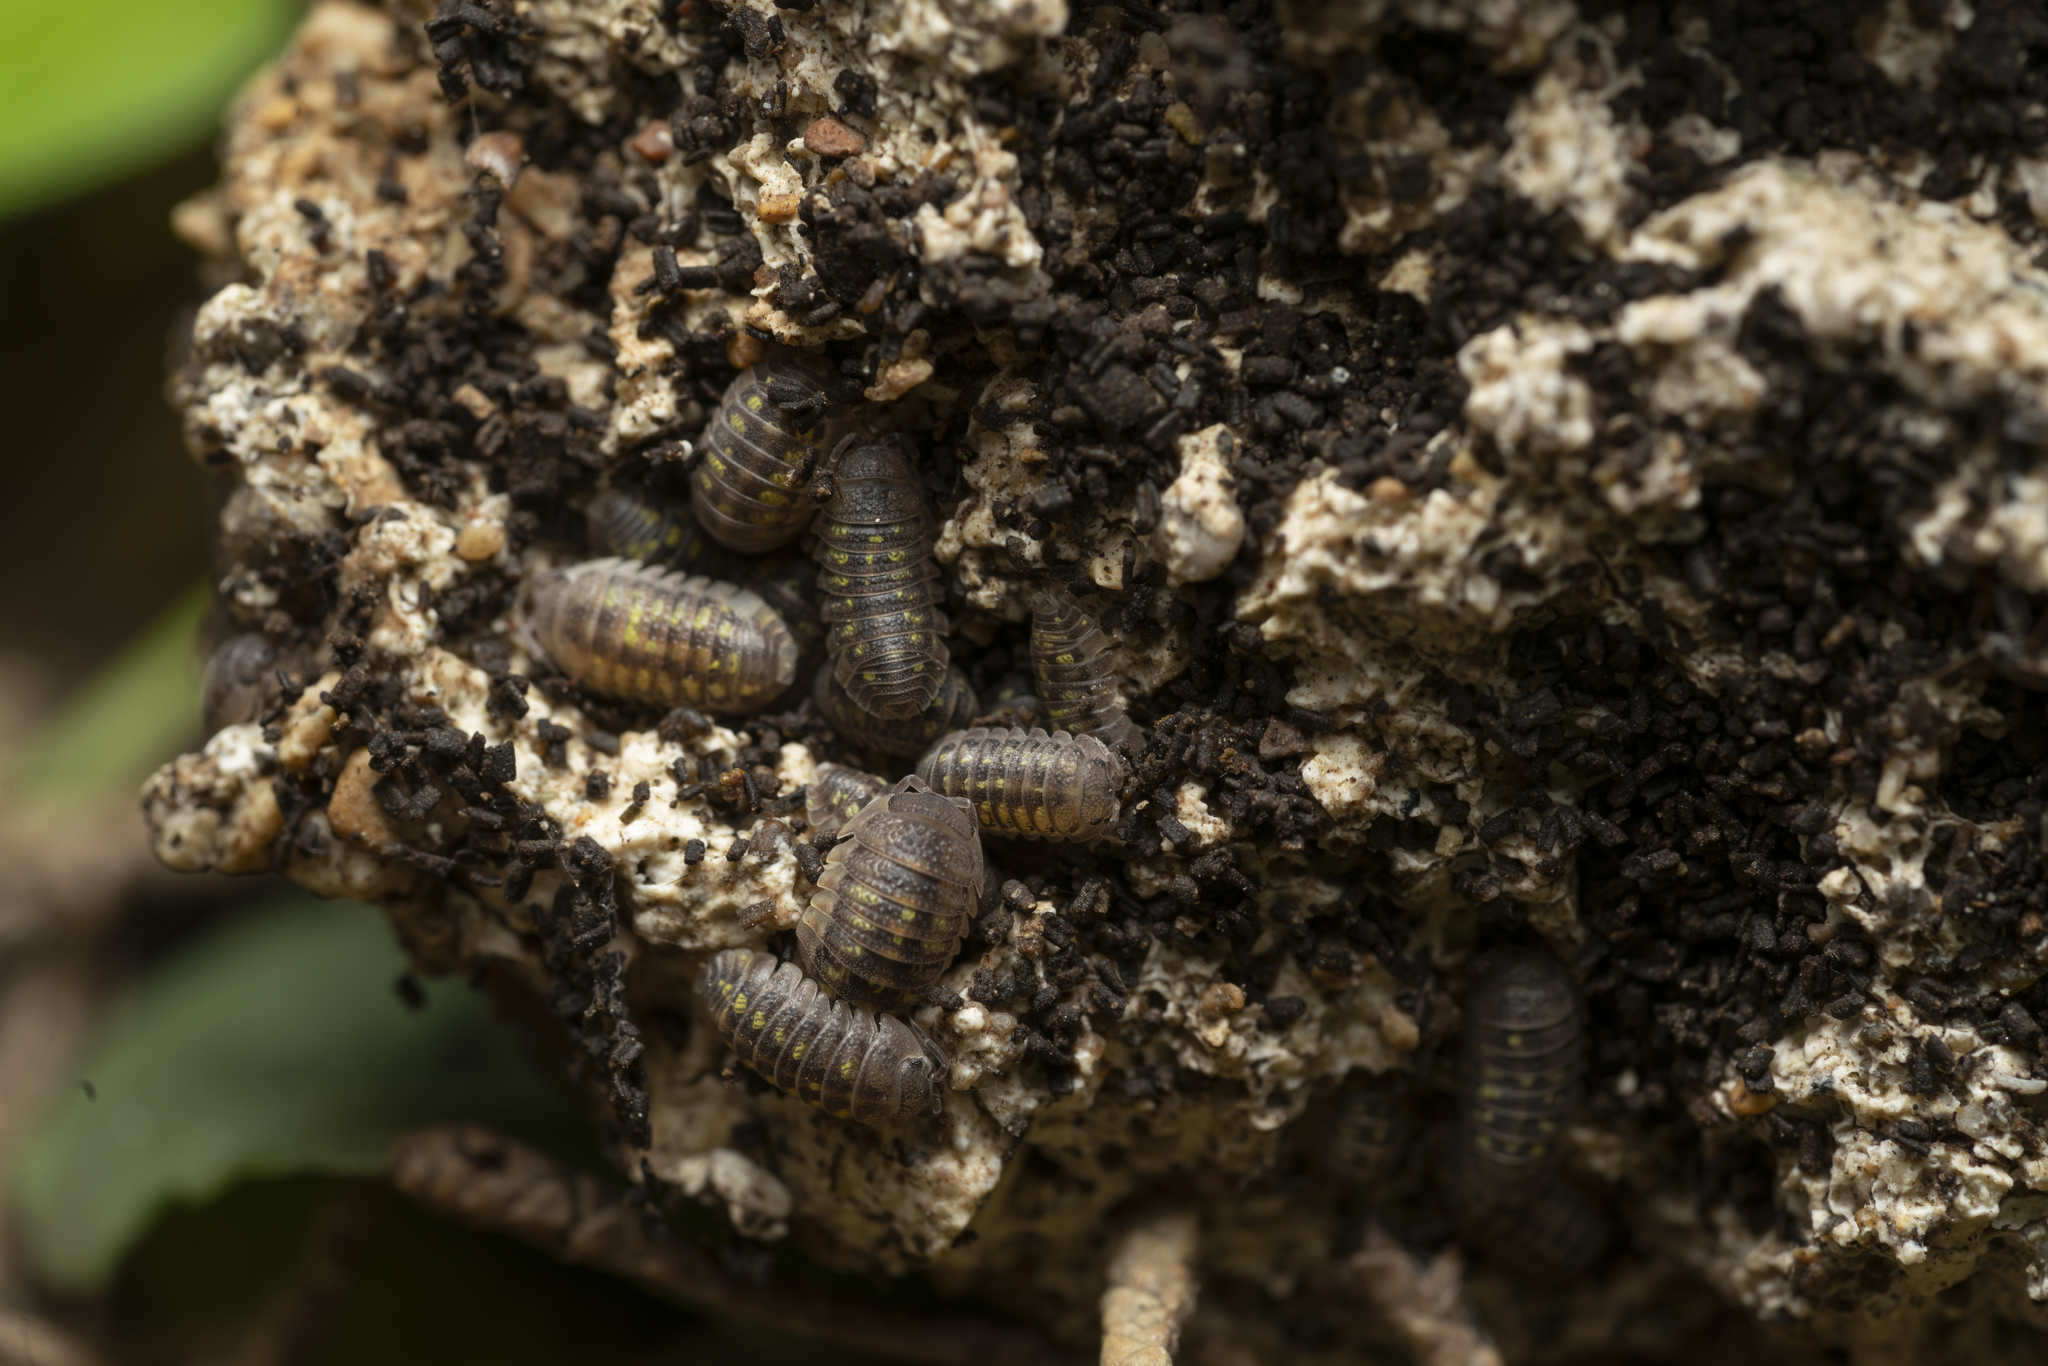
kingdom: Animalia
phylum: Arthropoda
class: Malacostraca
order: Isopoda
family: Armadillidiidae
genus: Armadillidium
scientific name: Armadillidium granulatum
